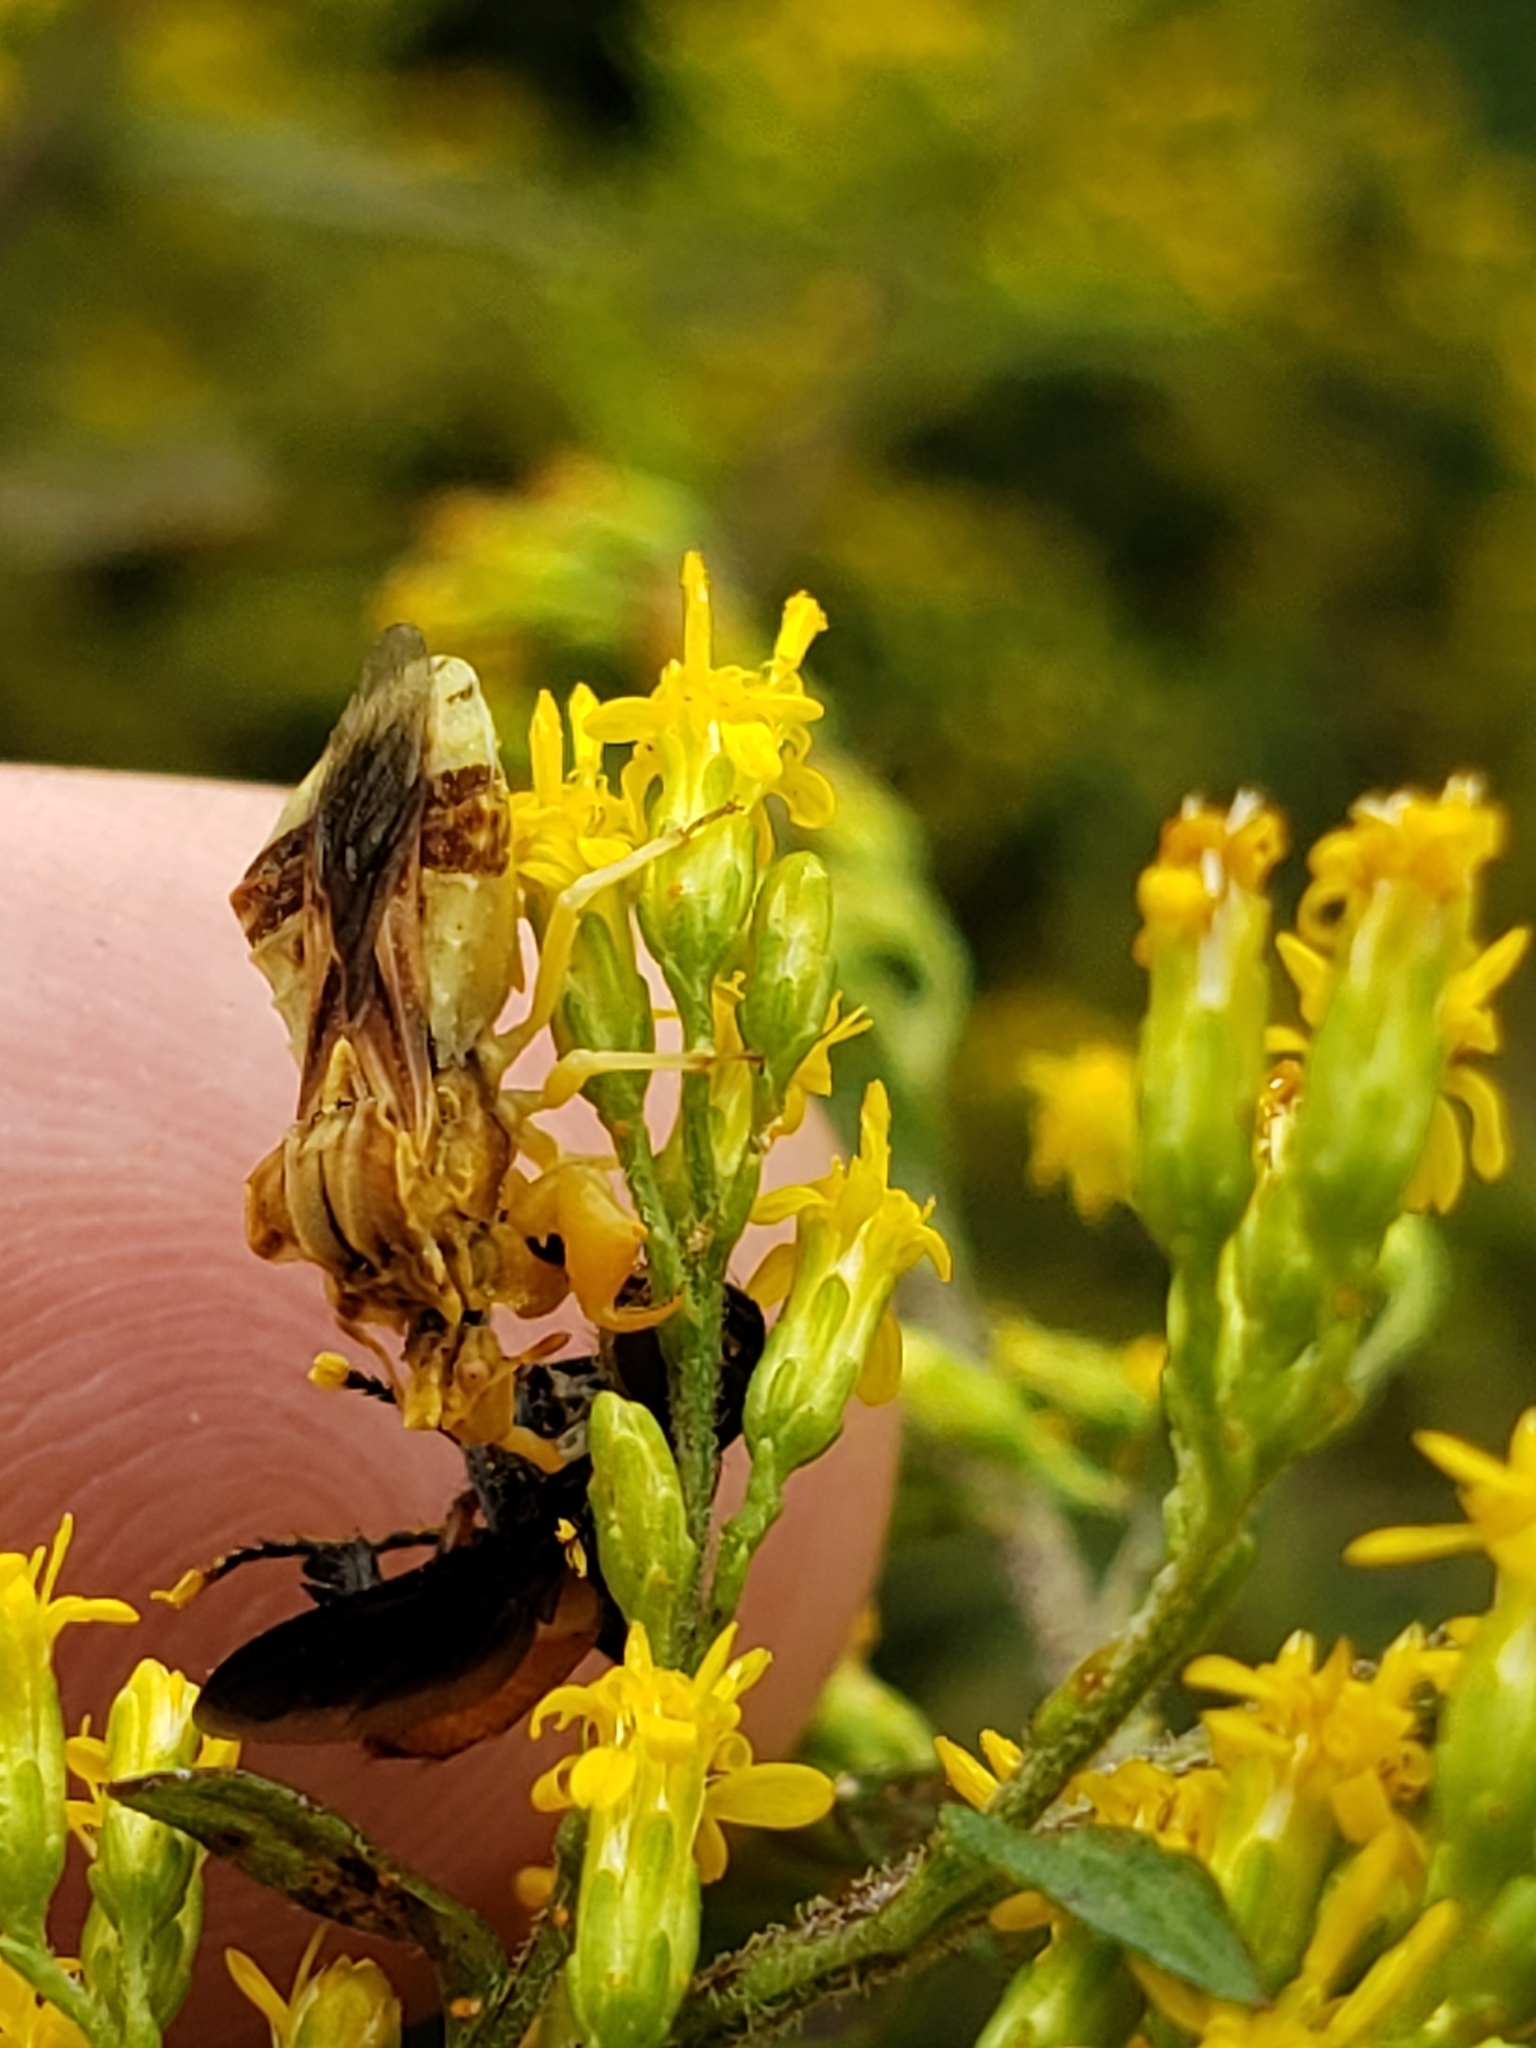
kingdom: Animalia
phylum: Arthropoda
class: Insecta
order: Hemiptera
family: Reduviidae
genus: Phymata
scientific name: Phymata fasciata
